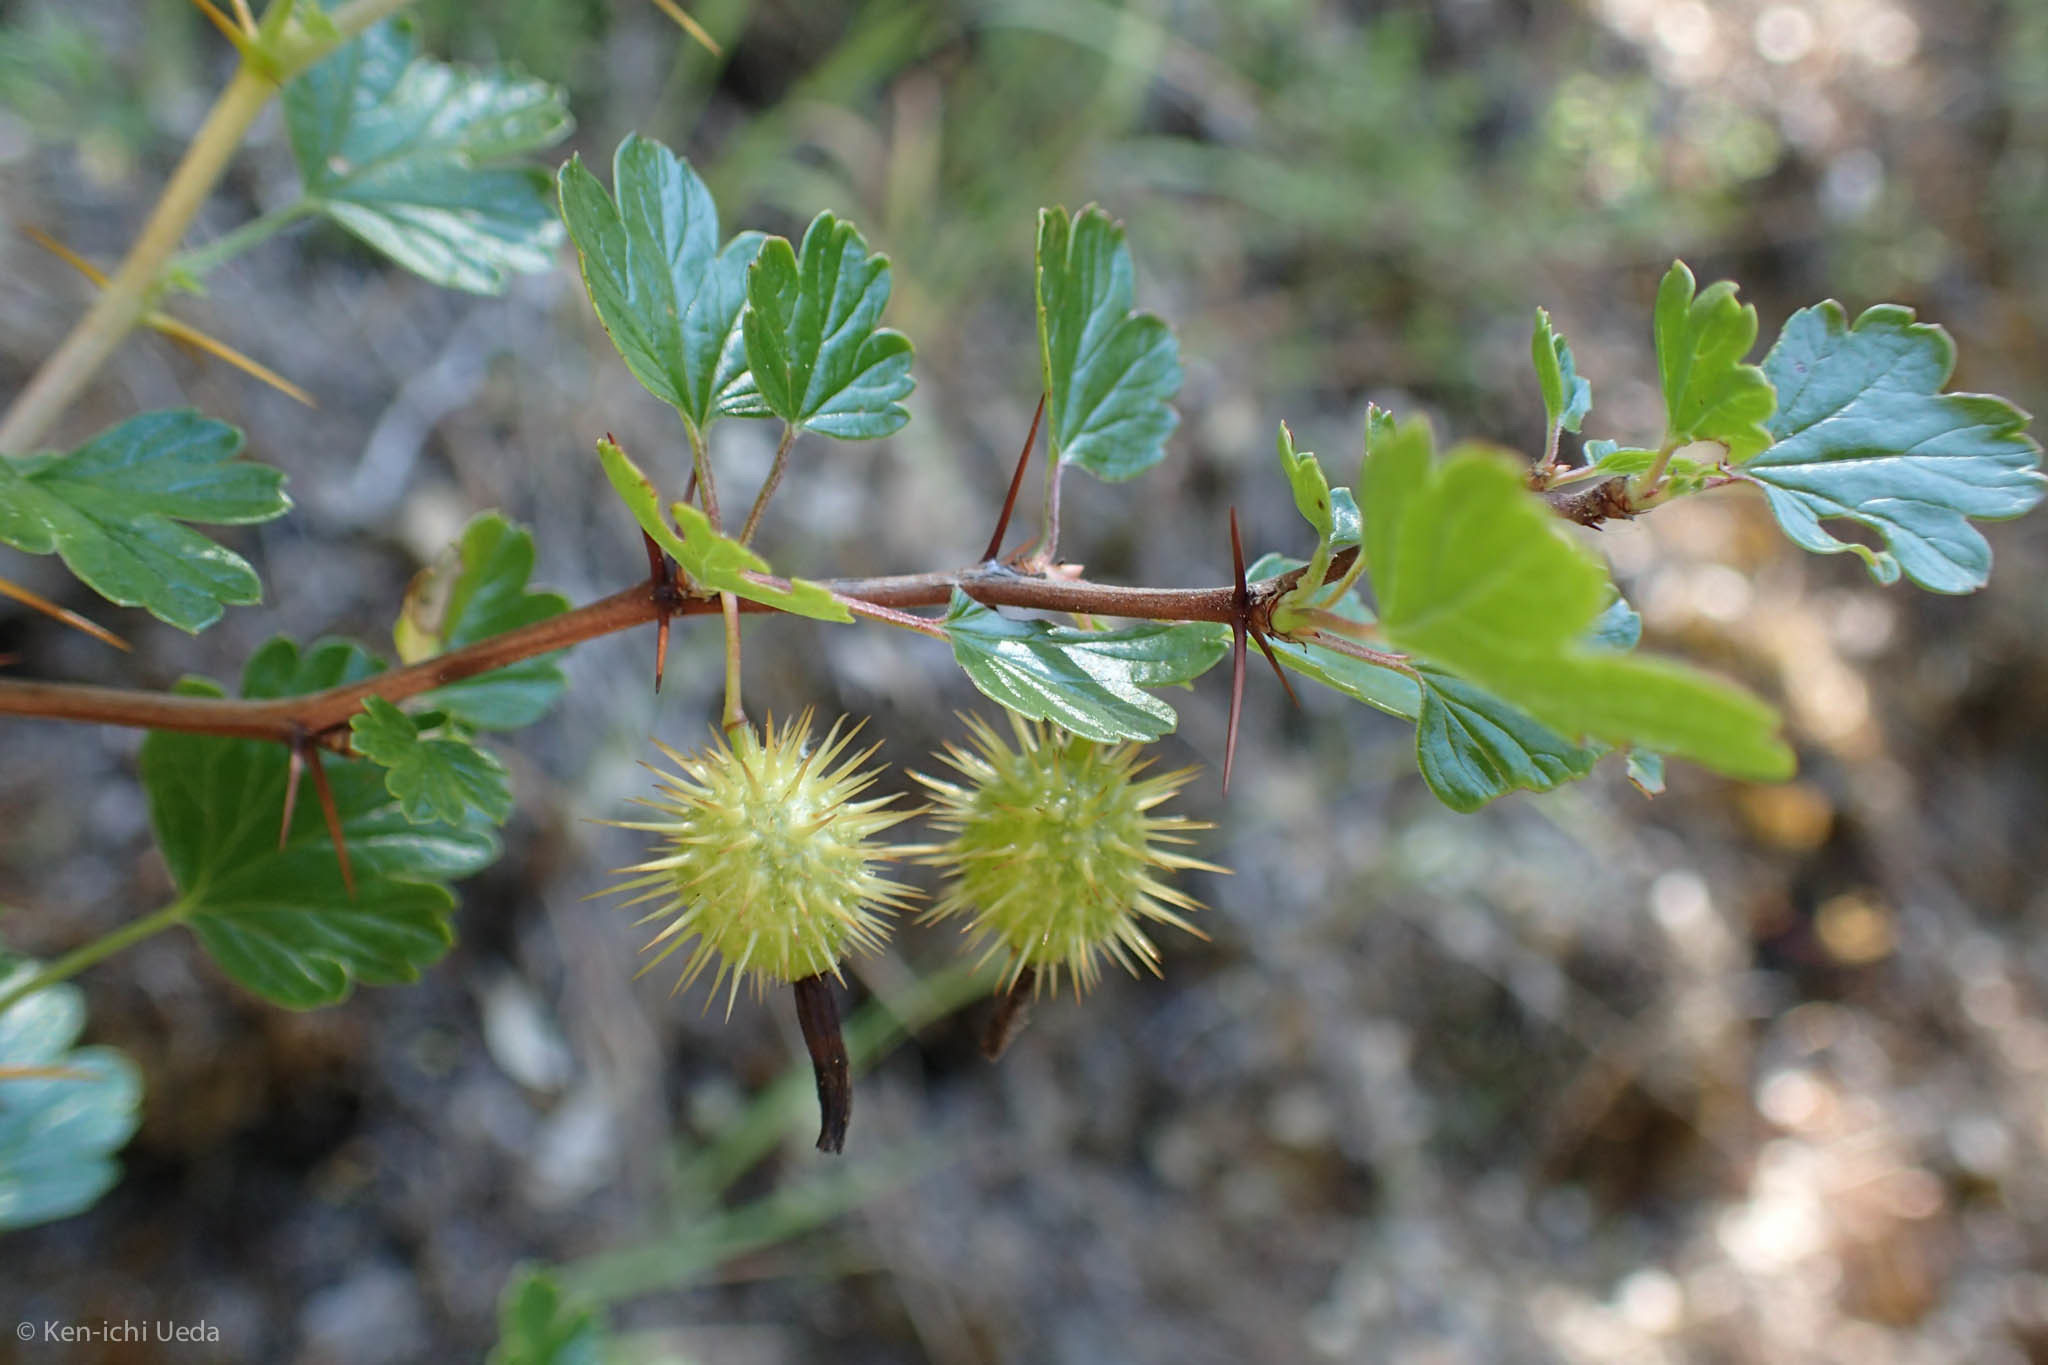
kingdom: Plantae
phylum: Tracheophyta
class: Magnoliopsida
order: Saxifragales
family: Grossulariaceae
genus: Ribes
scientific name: Ribes cruentum
